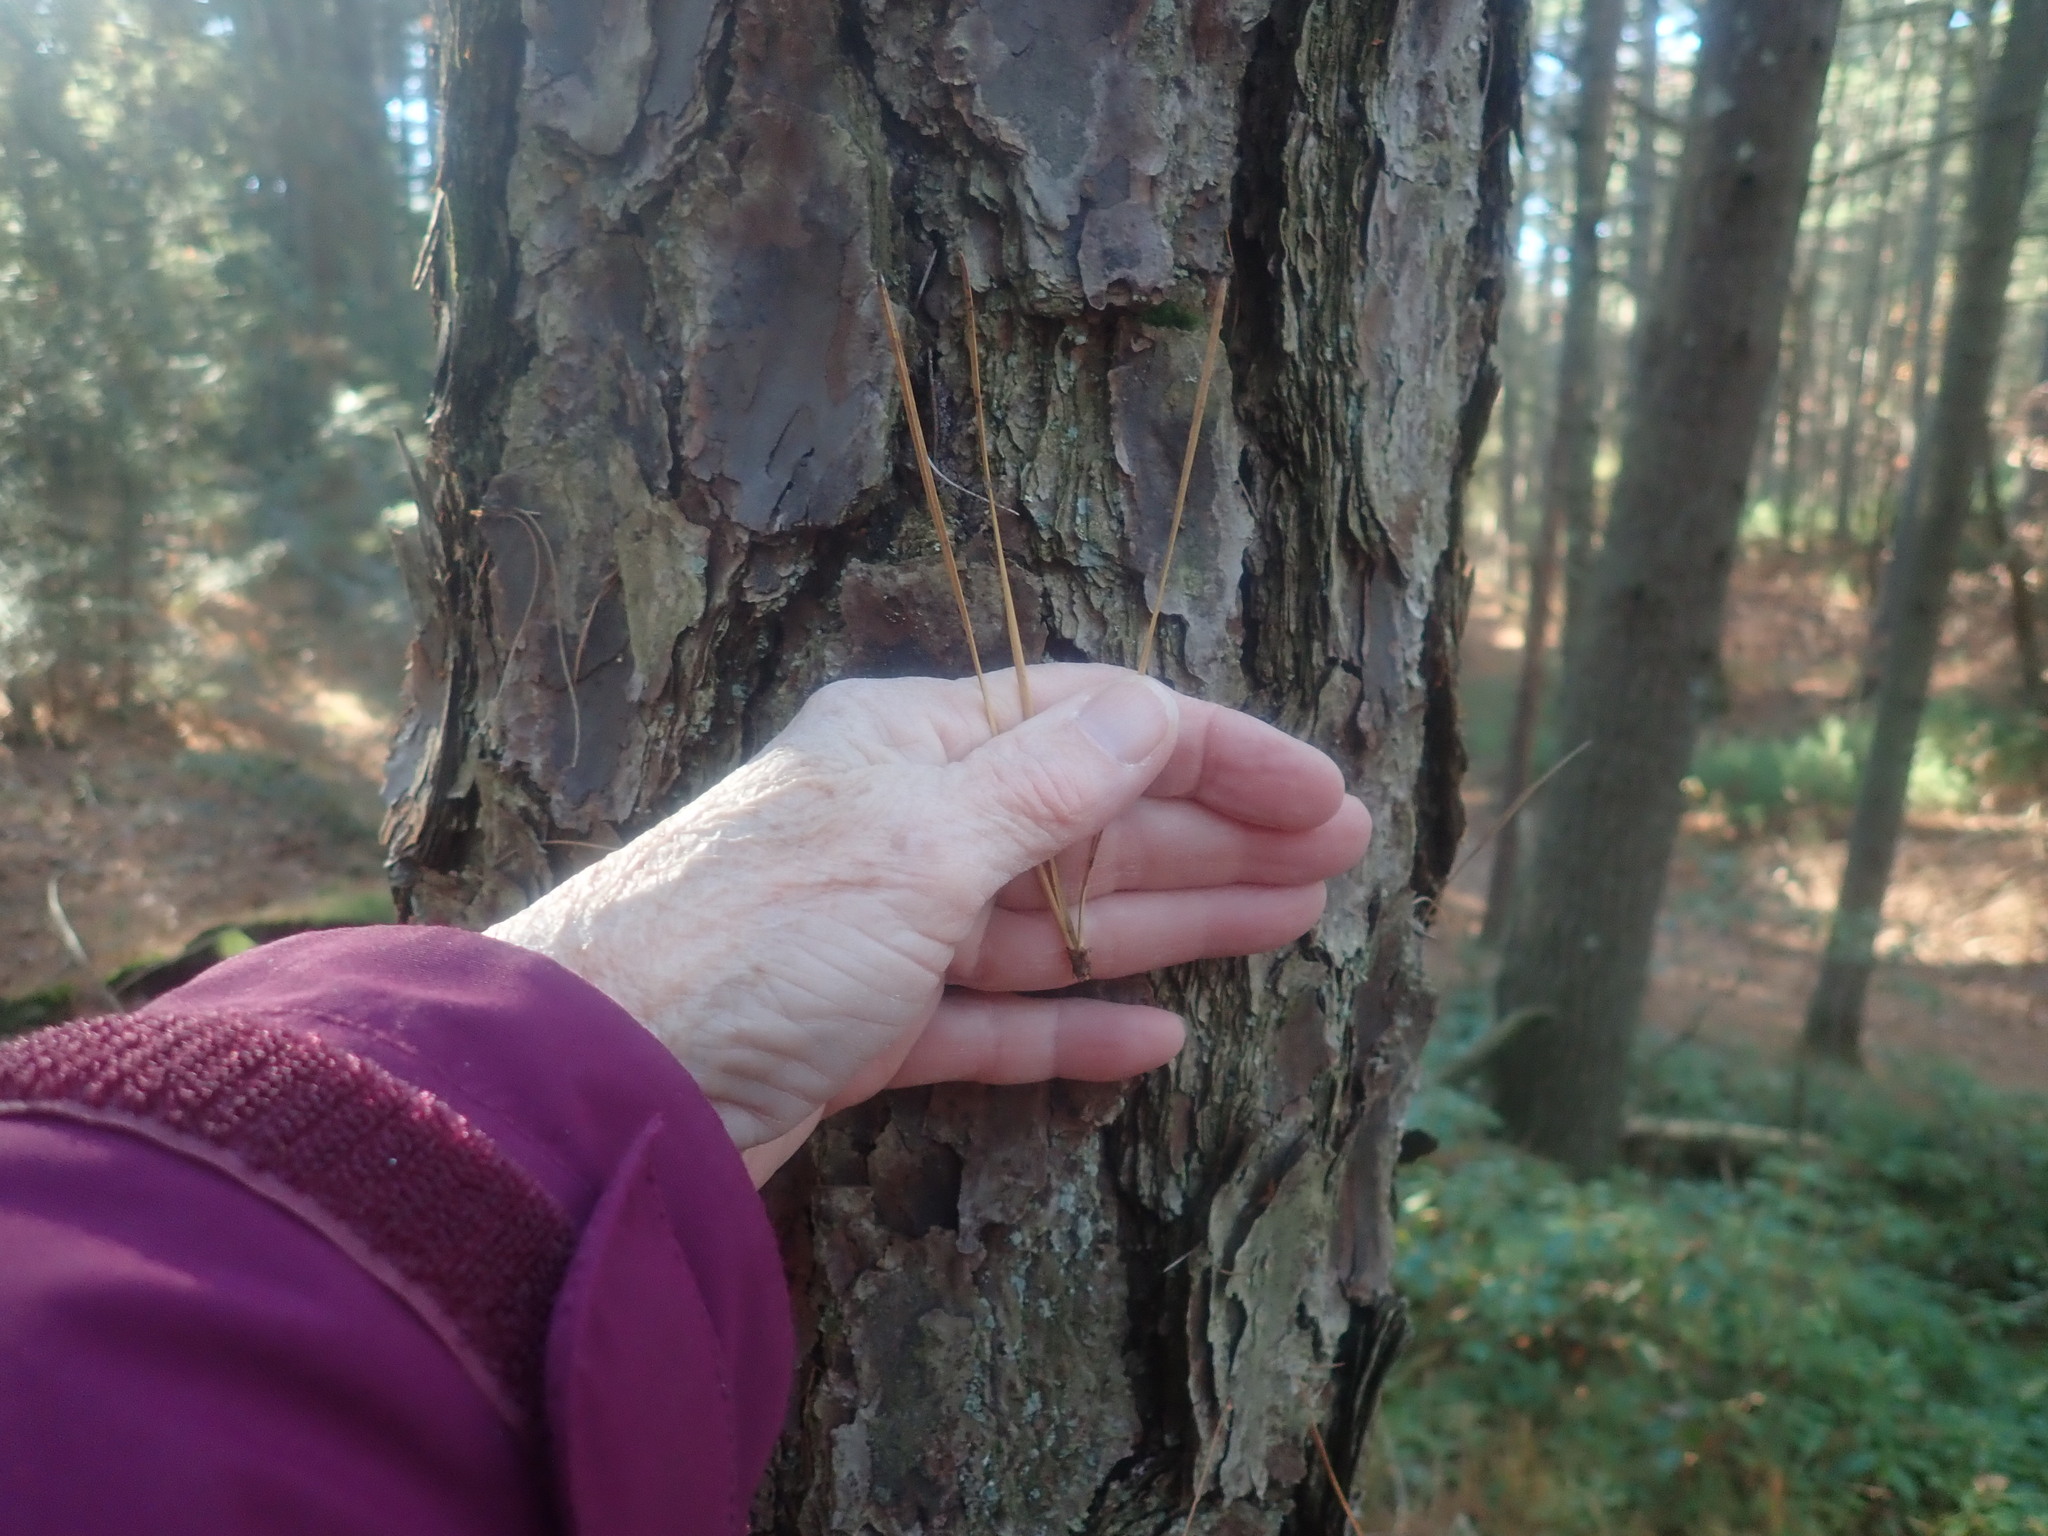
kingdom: Plantae
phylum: Tracheophyta
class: Pinopsida
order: Pinales
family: Pinaceae
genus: Pinus
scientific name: Pinus rigida
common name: Pitch pine
